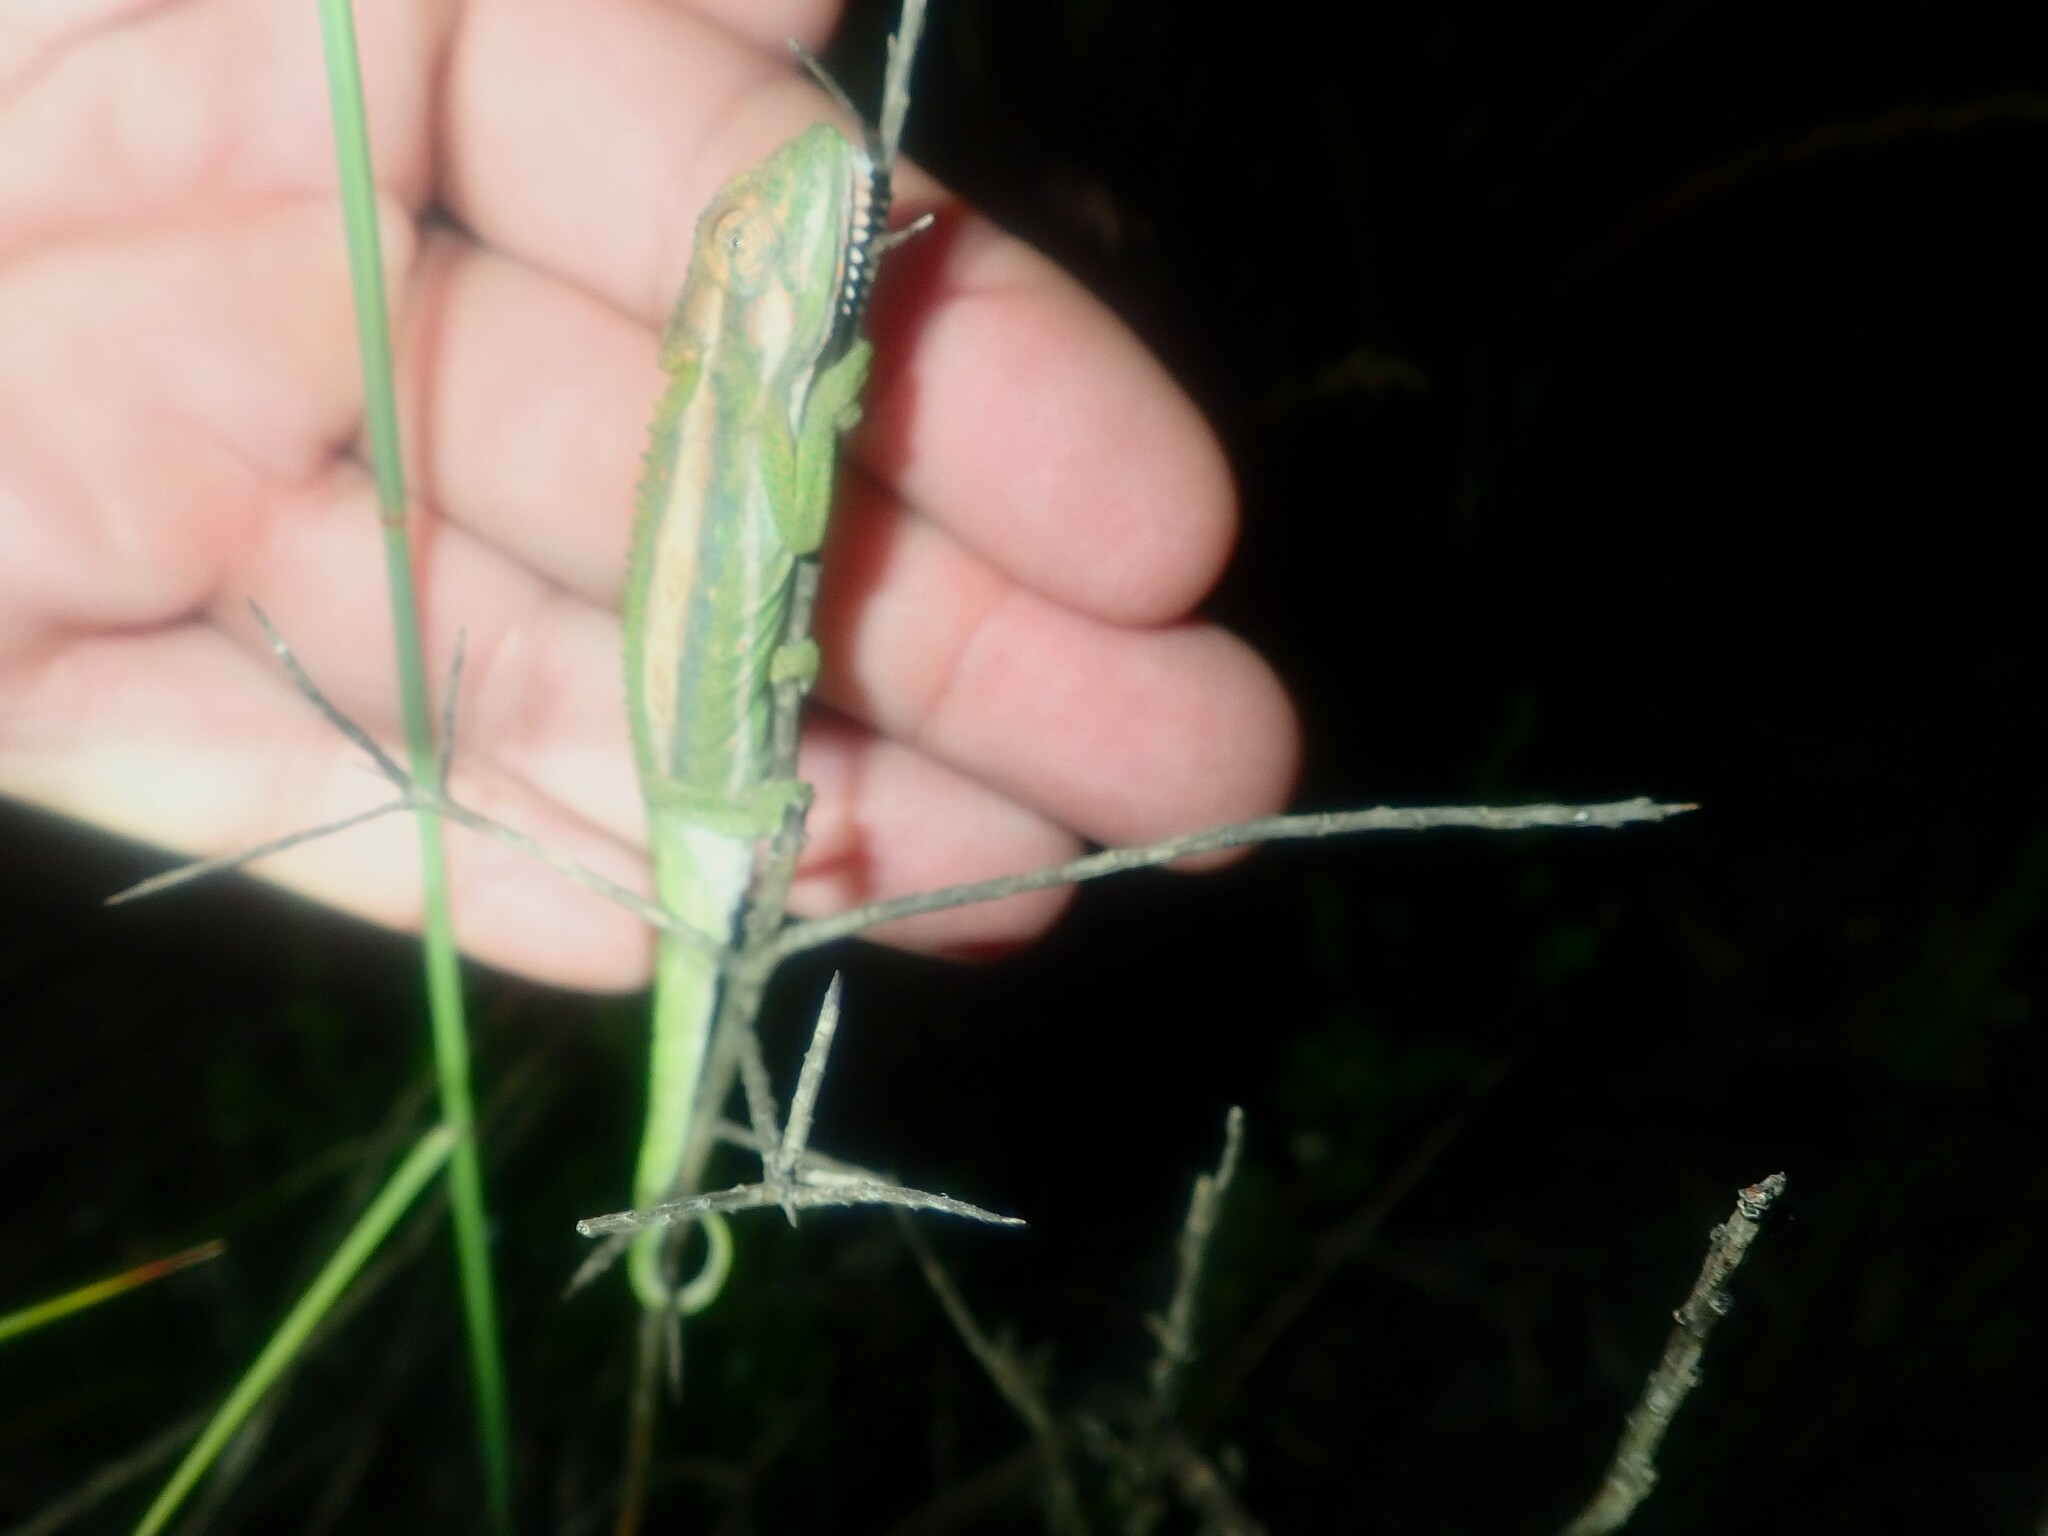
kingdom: Animalia
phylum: Chordata
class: Squamata
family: Chamaeleonidae
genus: Bradypodion
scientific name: Bradypodion pumilum
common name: Cape dwarf chameleon
